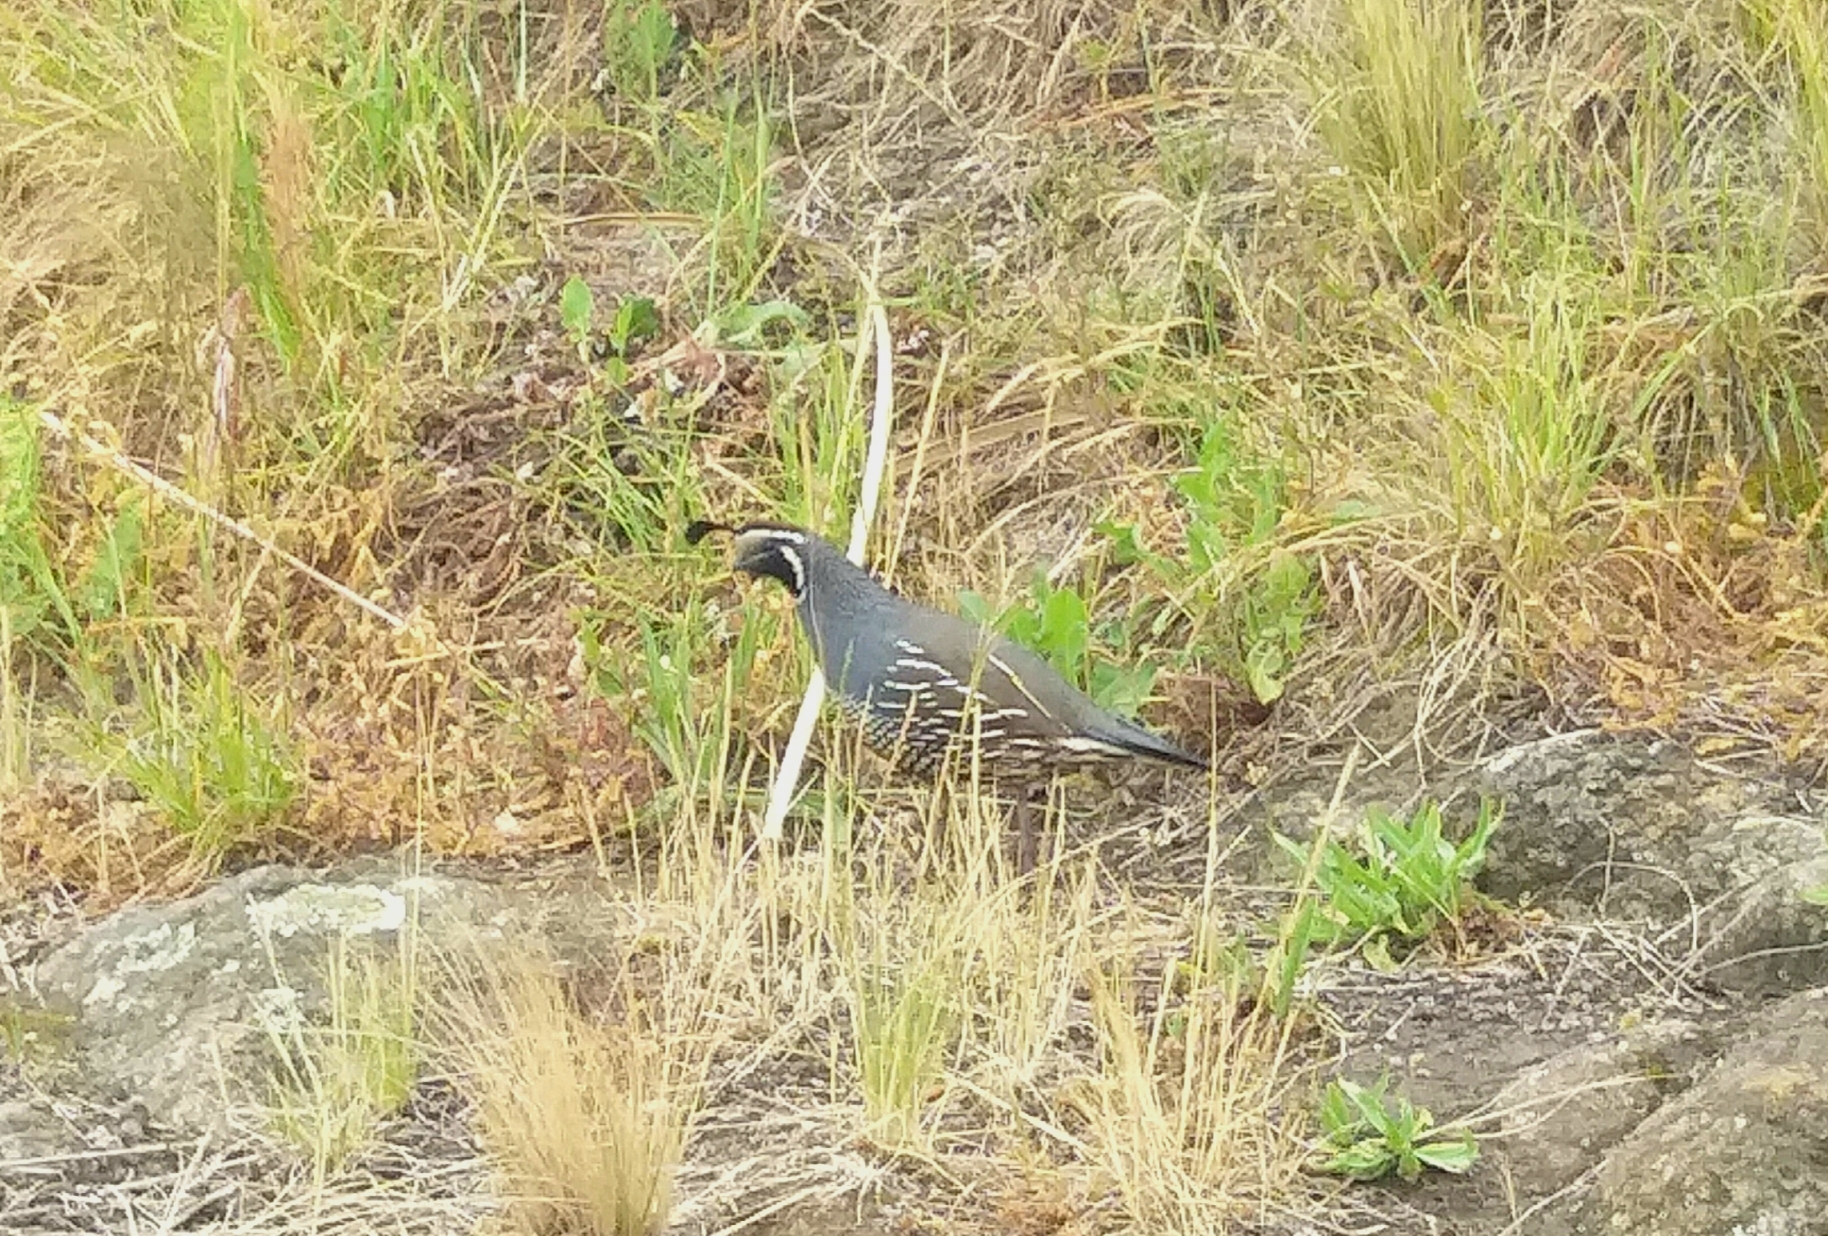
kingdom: Animalia
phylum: Chordata
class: Aves
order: Galliformes
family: Odontophoridae
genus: Callipepla
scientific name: Callipepla californica
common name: California quail
